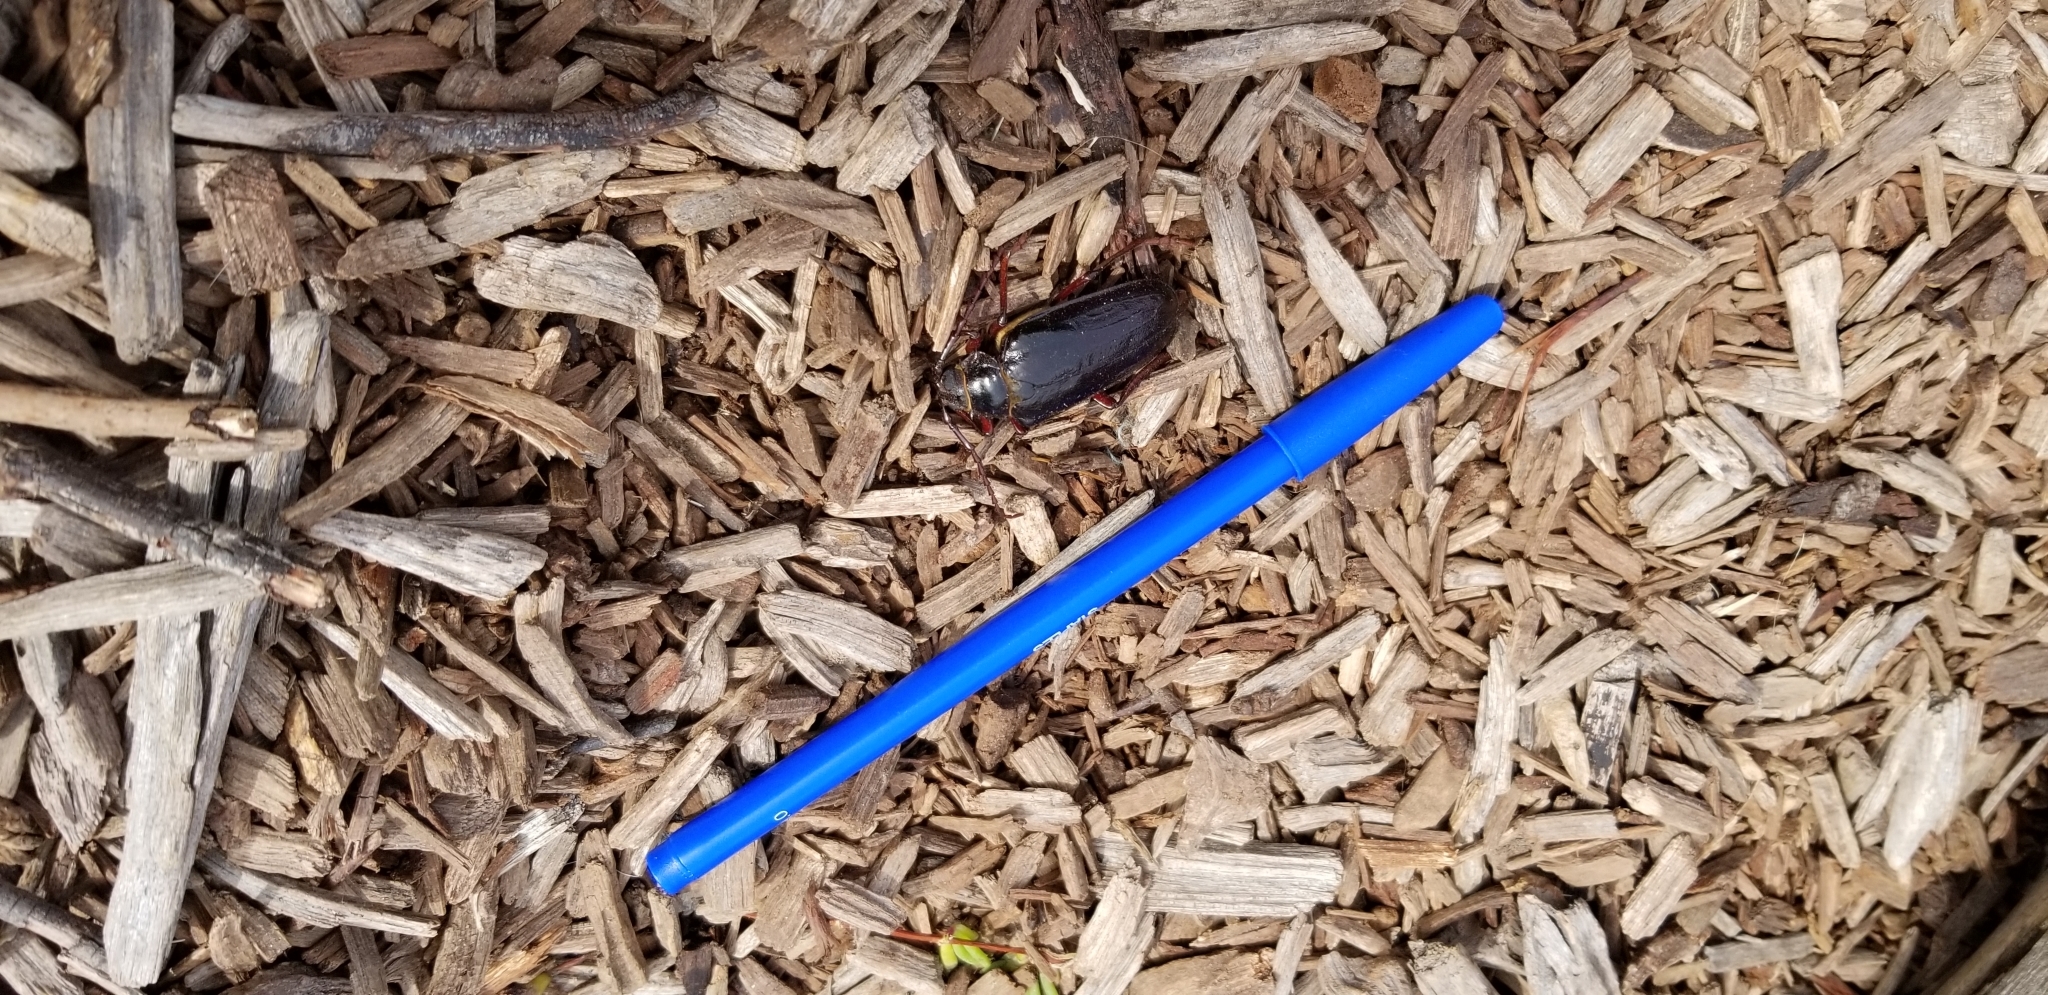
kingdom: Animalia
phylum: Arthropoda
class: Insecta
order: Coleoptera
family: Cerambycidae
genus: Prionus
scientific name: Prionus californicus
